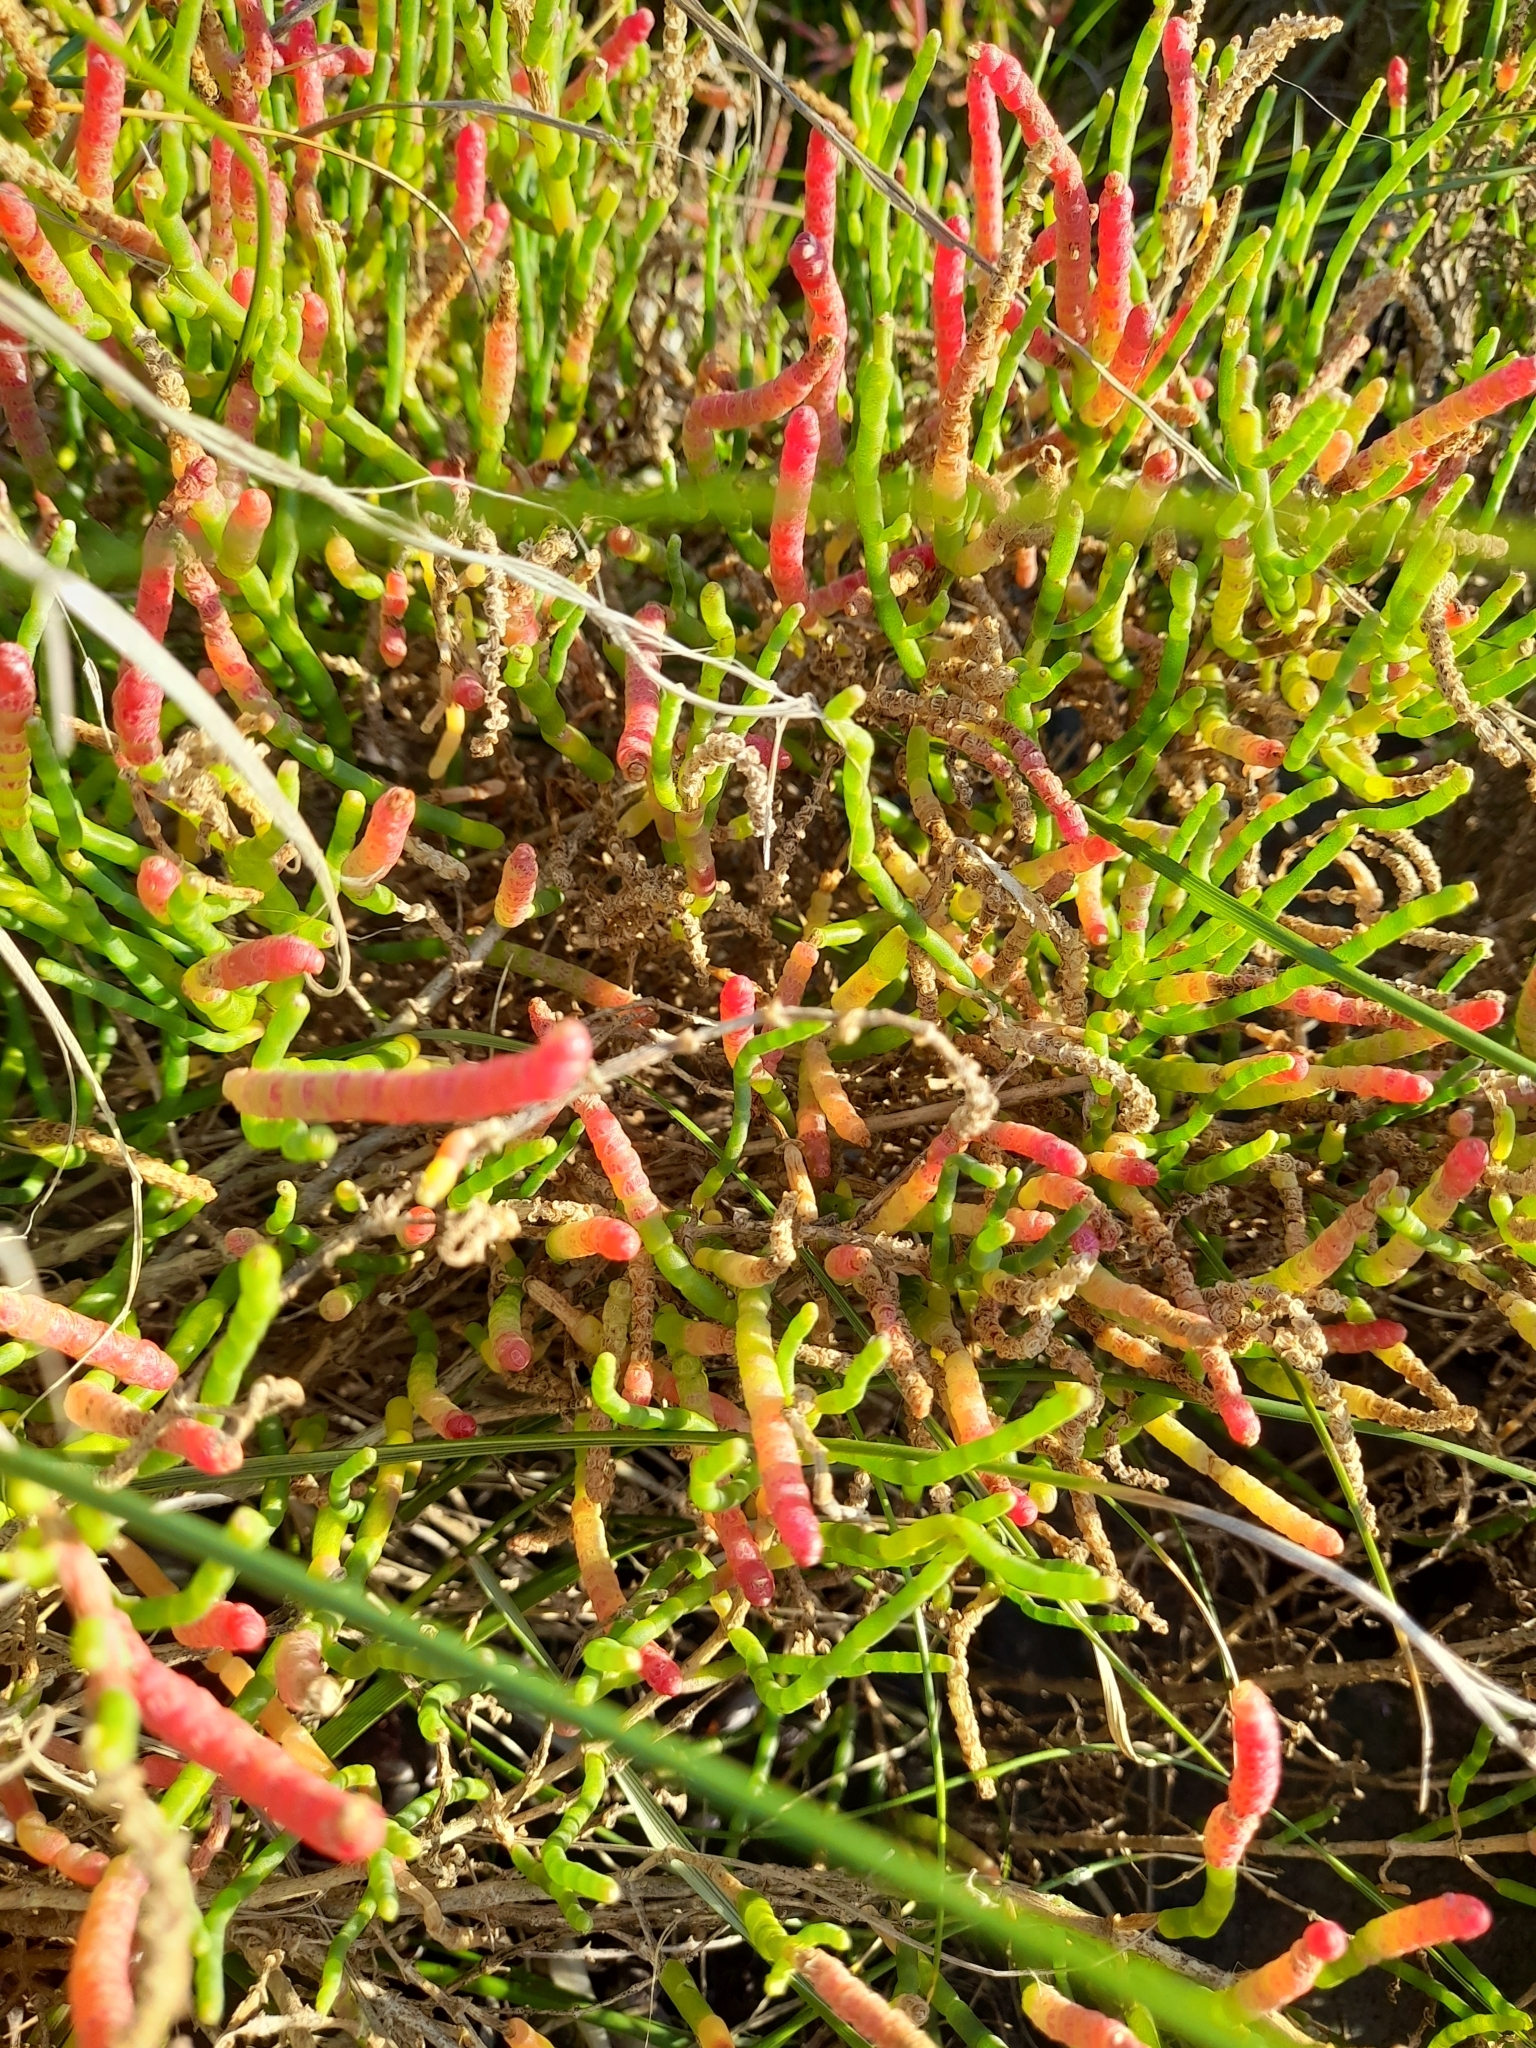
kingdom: Plantae
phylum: Tracheophyta
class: Magnoliopsida
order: Caryophyllales
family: Amaranthaceae
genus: Salicornia
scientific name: Salicornia ambigua
